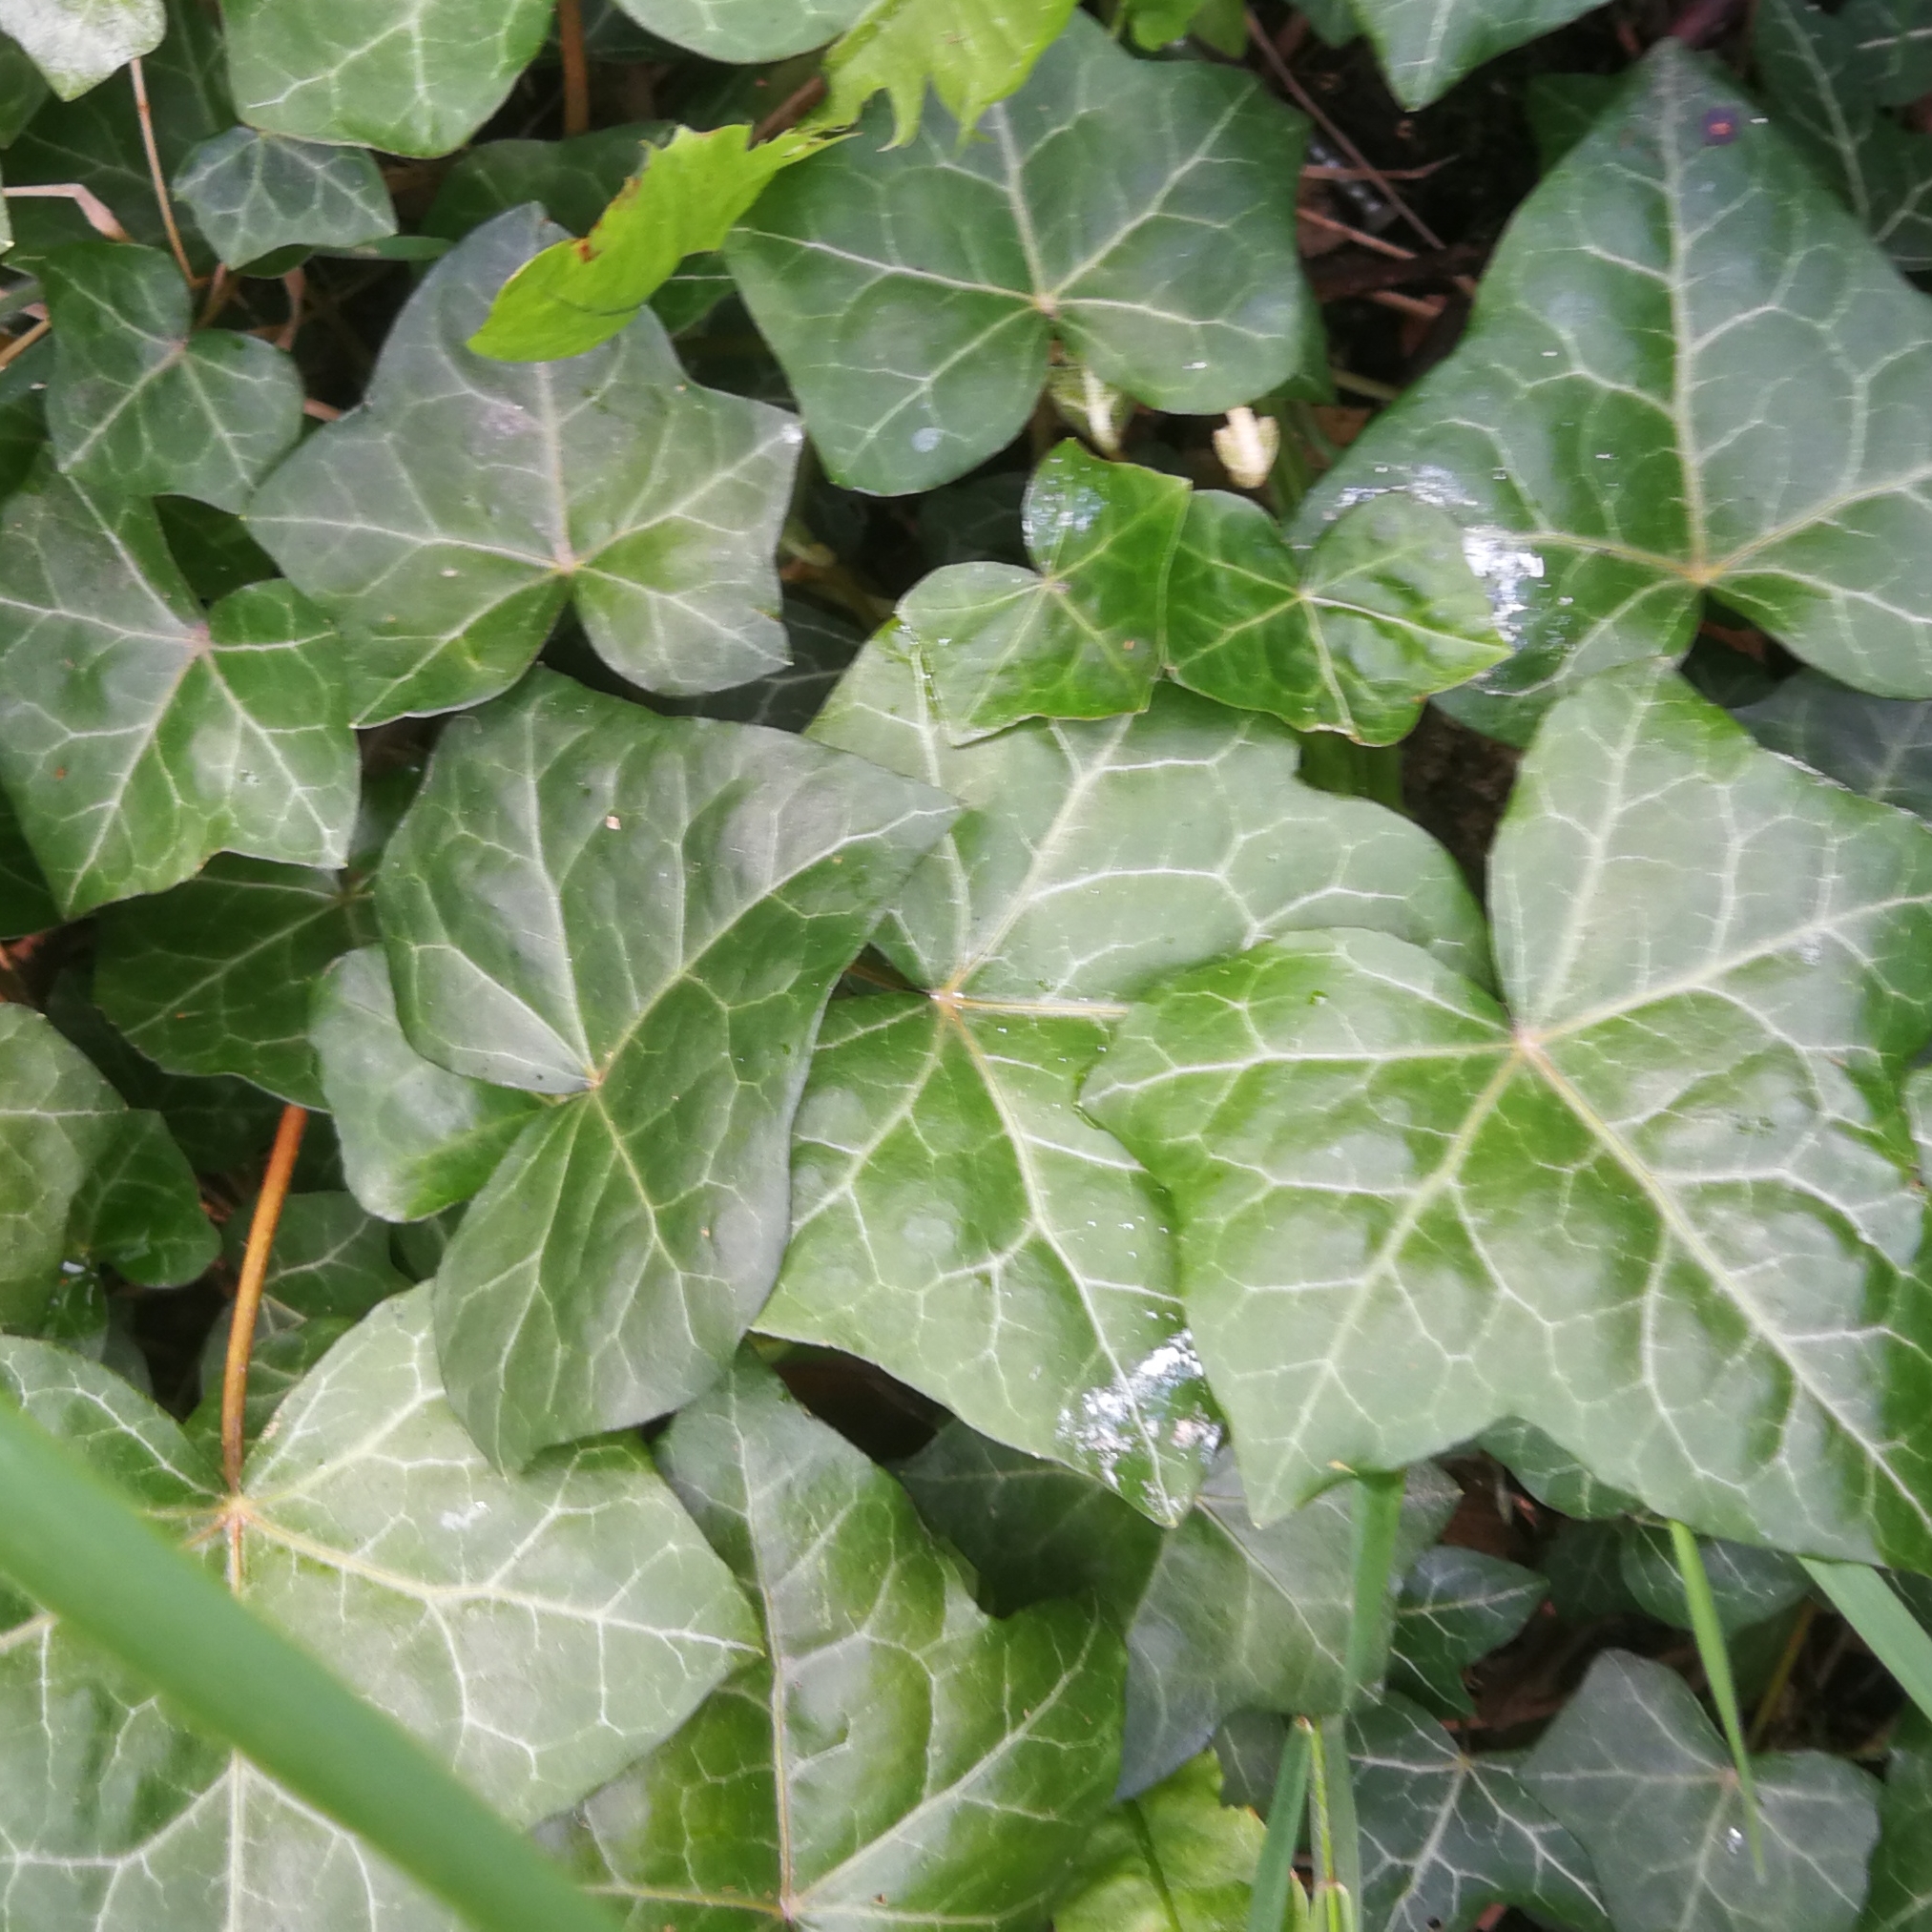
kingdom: Plantae
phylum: Tracheophyta
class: Magnoliopsida
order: Apiales
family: Araliaceae
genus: Hedera
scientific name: Hedera helix
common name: Ivy
